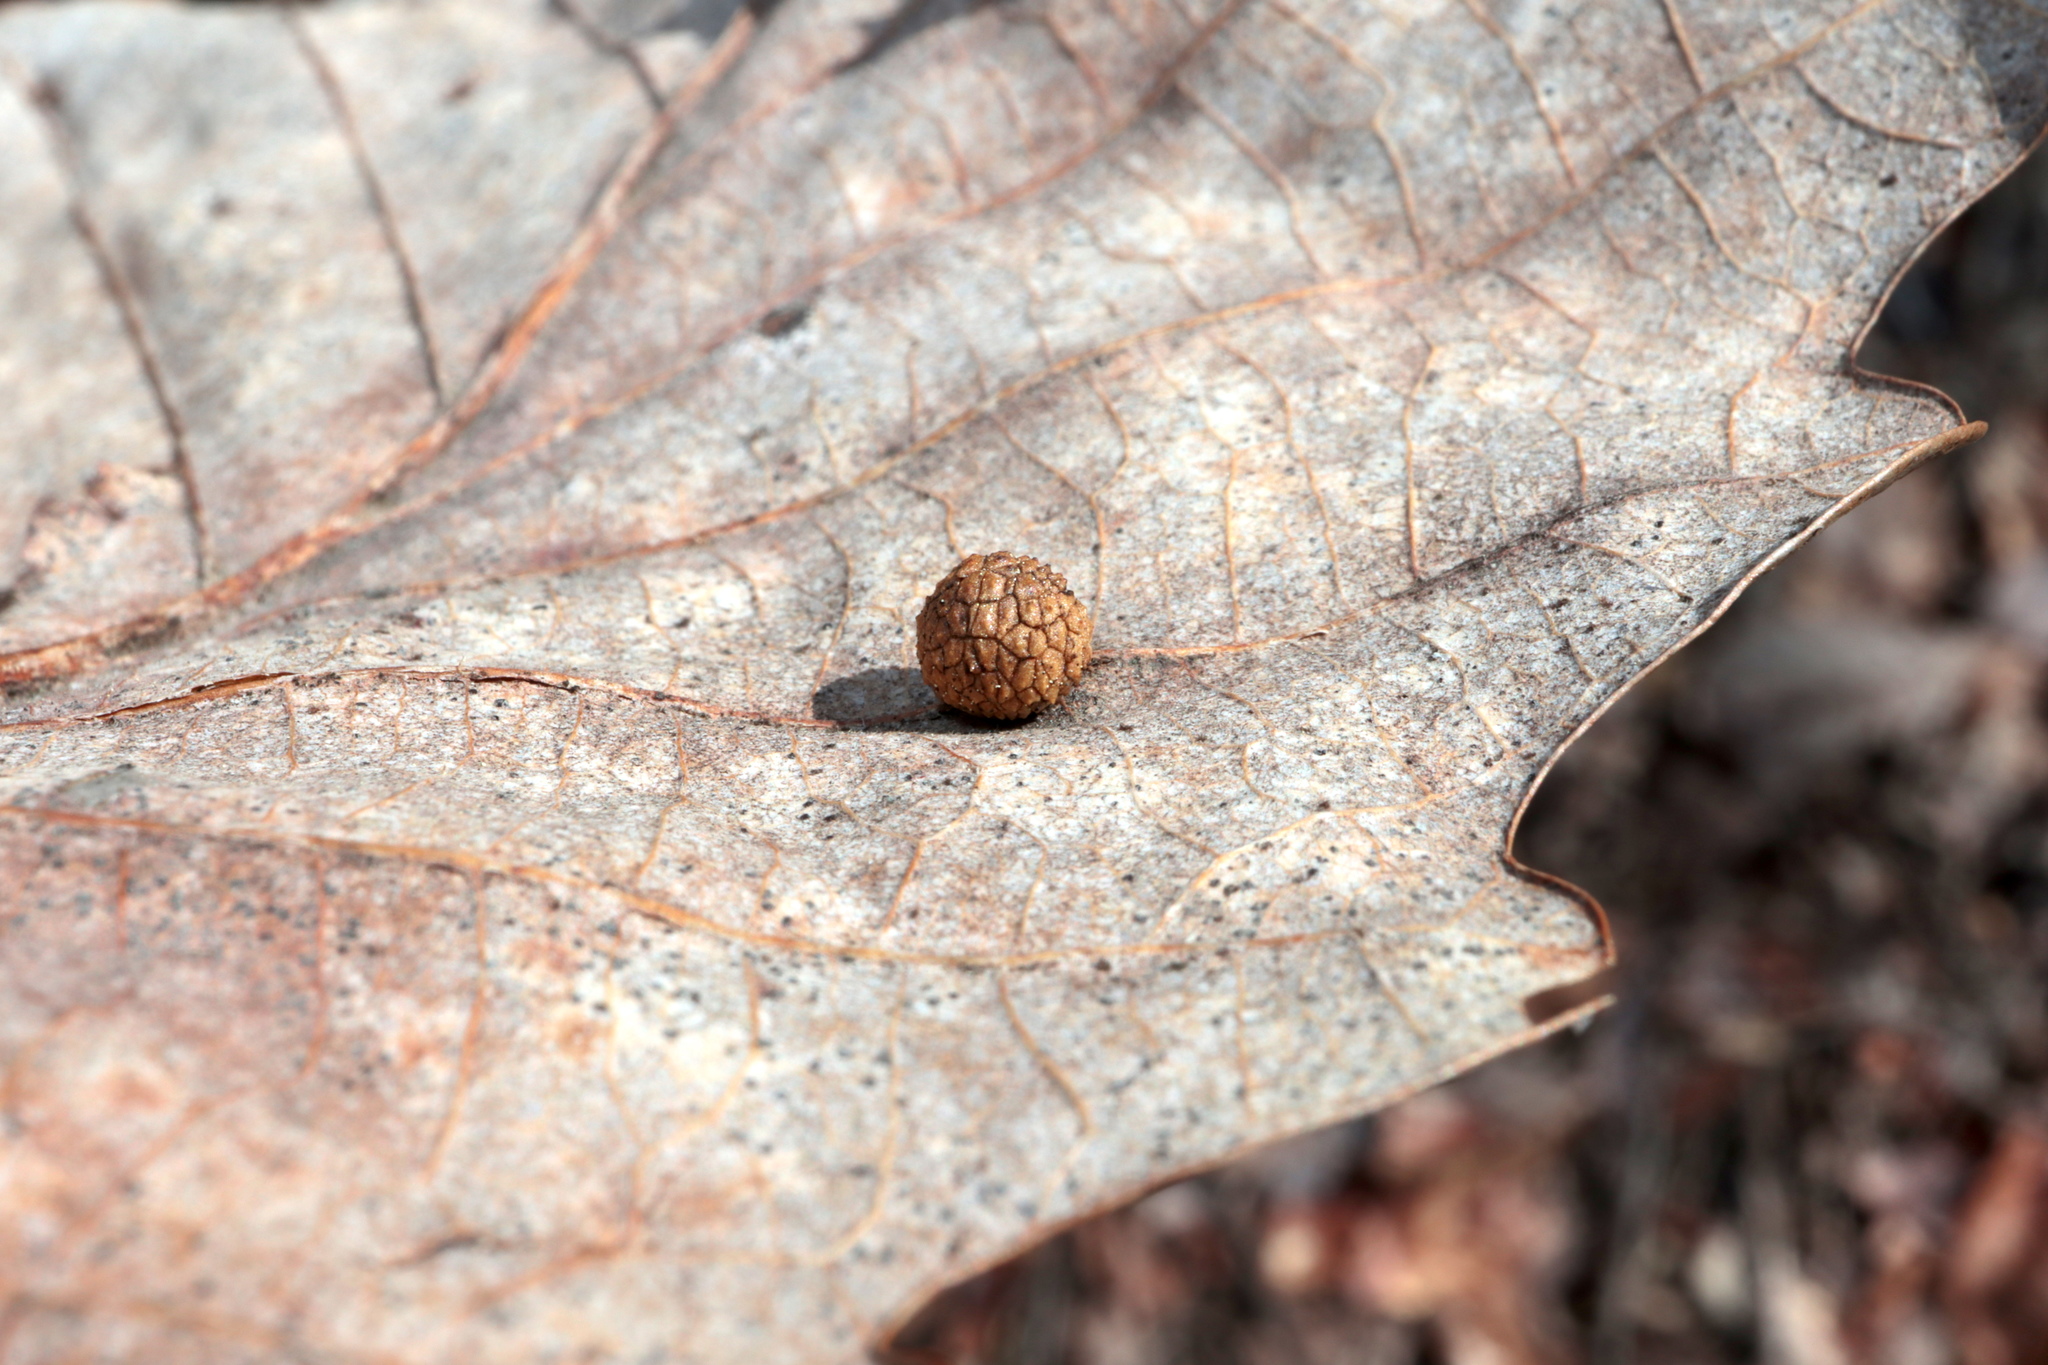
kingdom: Animalia
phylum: Arthropoda
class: Insecta
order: Hymenoptera
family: Cynipidae
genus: Acraspis
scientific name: Acraspis quercushirta
